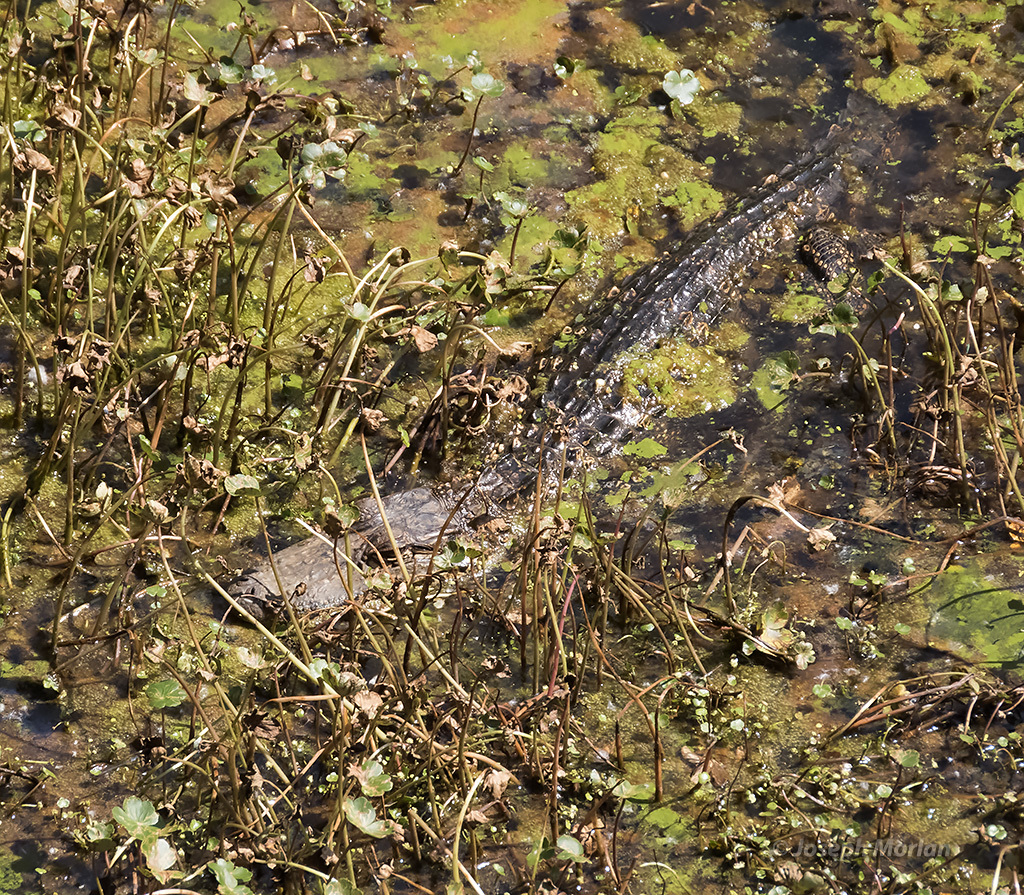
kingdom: Animalia
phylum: Chordata
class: Crocodylia
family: Alligatoridae
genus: Alligator
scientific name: Alligator mississippiensis
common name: American alligator
